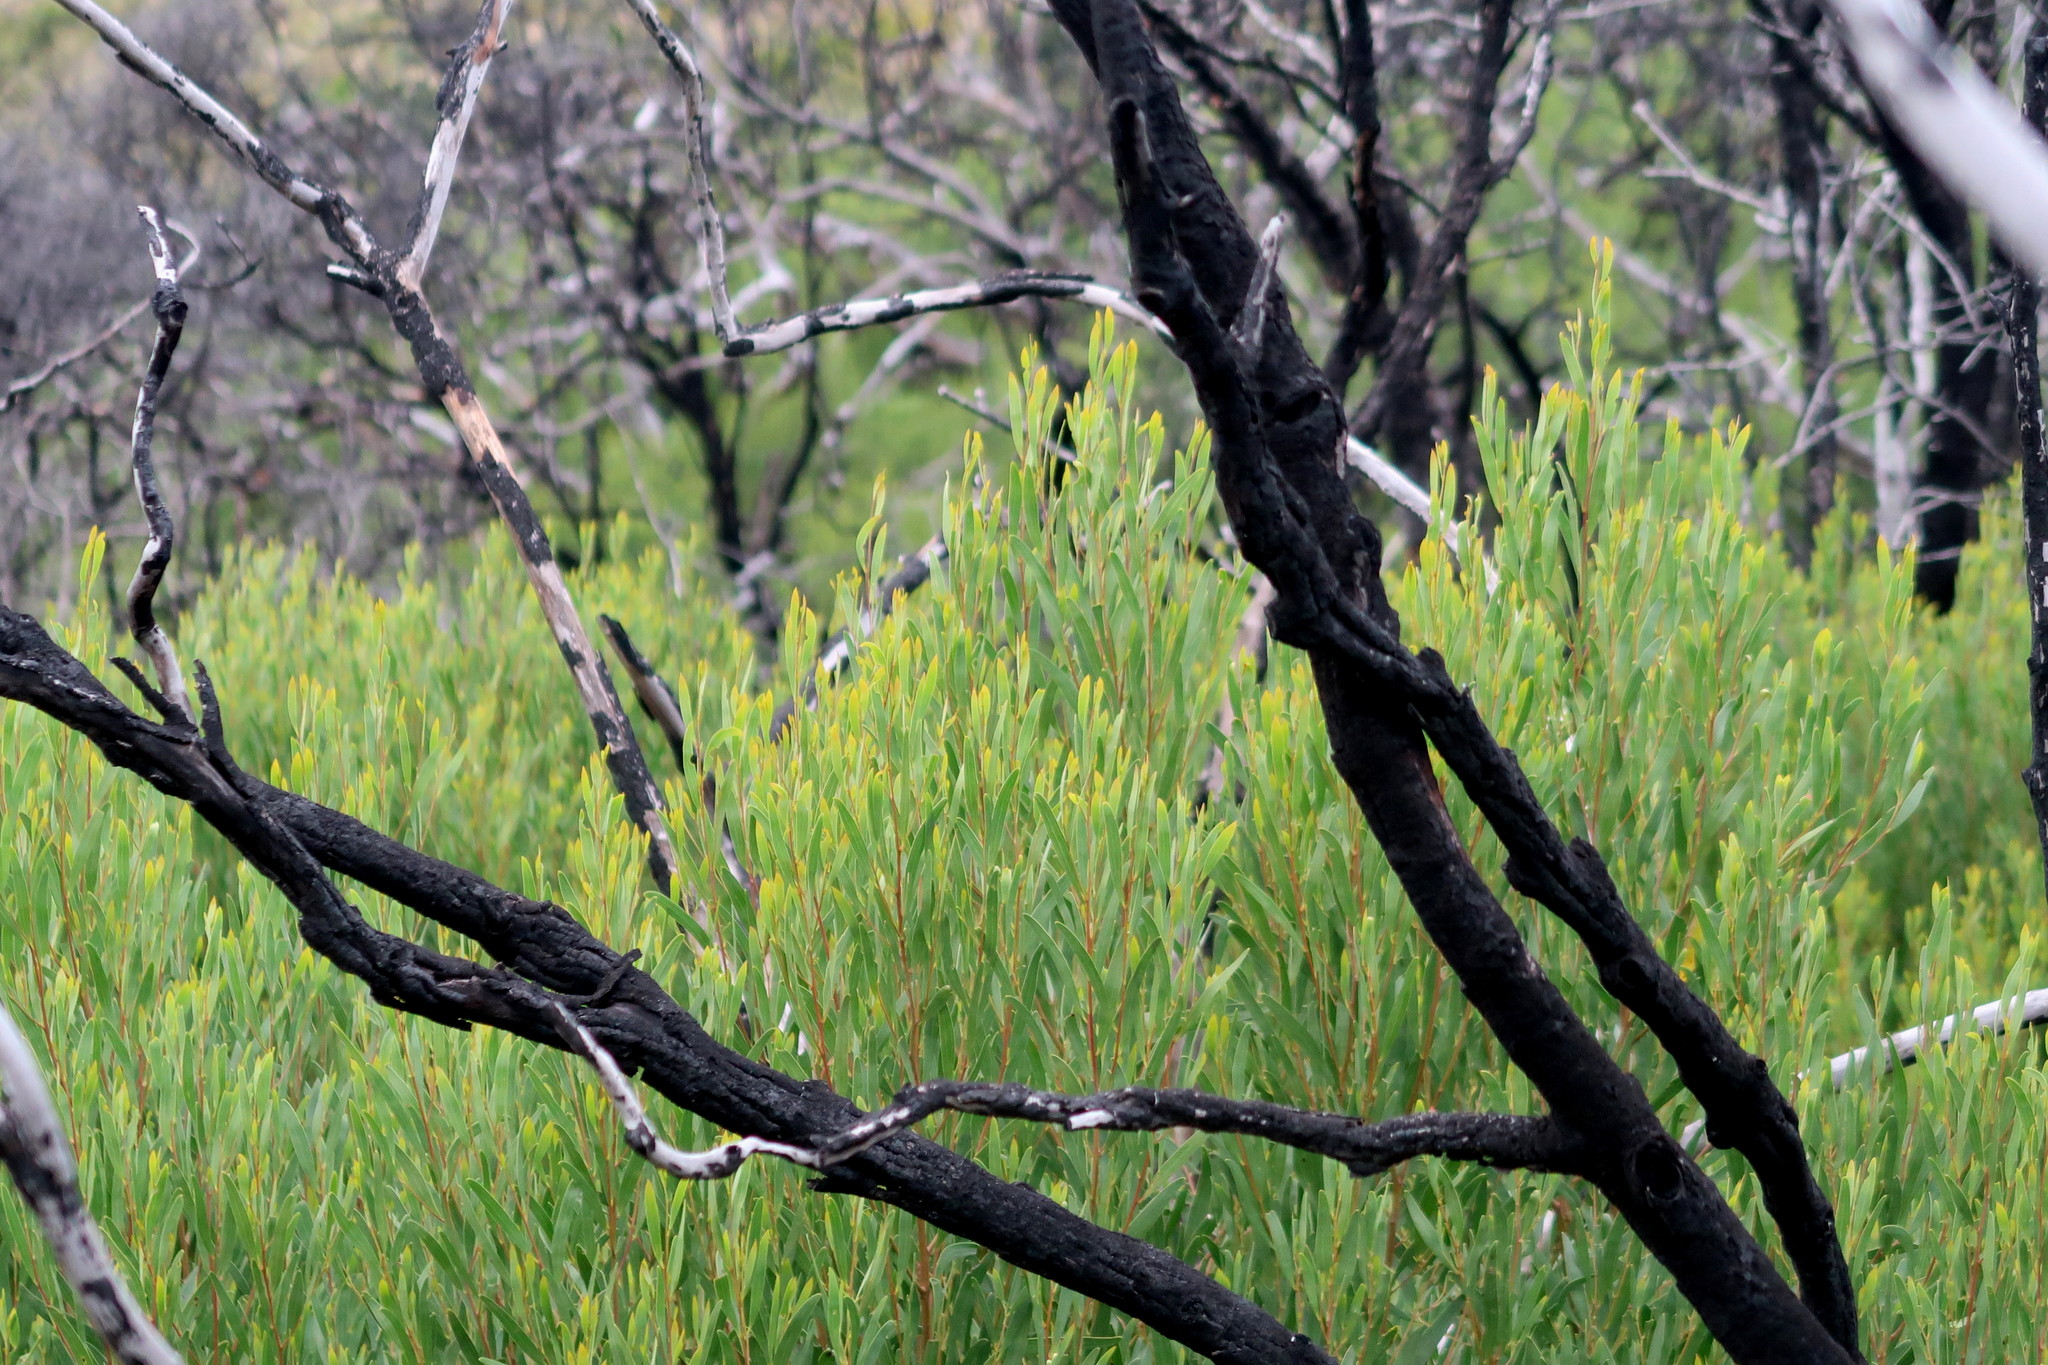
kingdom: Plantae
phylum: Tracheophyta
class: Magnoliopsida
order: Fabales
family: Fabaceae
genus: Acacia
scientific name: Acacia cyclops
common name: Coastal wattle
